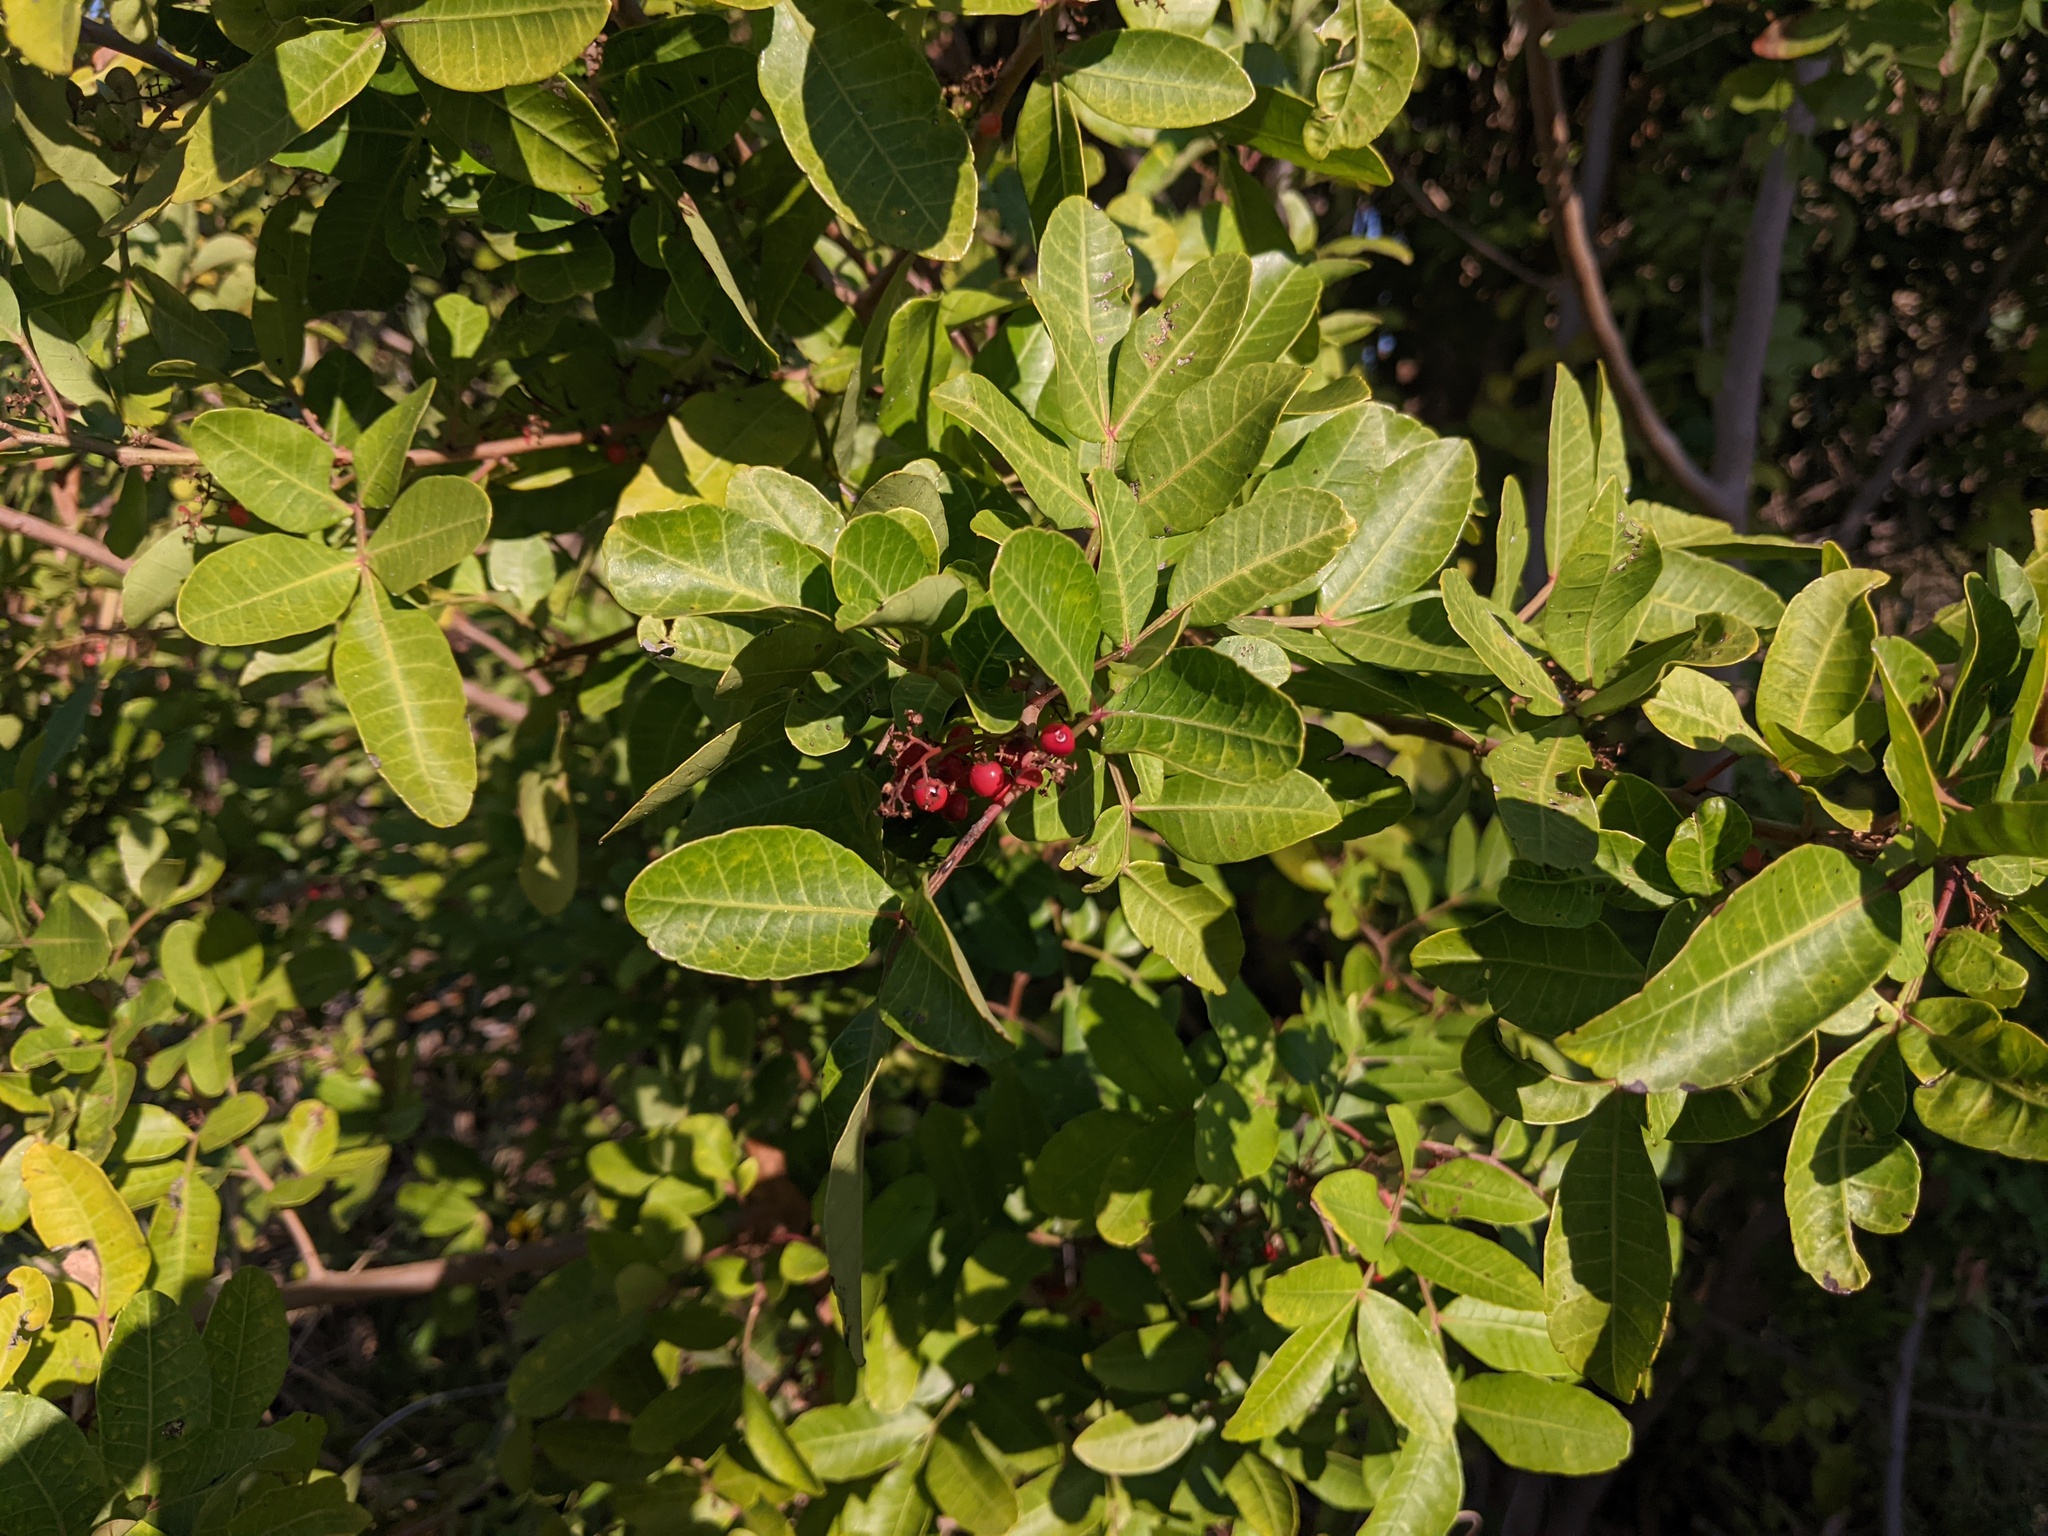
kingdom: Plantae
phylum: Tracheophyta
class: Magnoliopsida
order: Sapindales
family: Anacardiaceae
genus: Schinus
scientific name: Schinus terebinthifolia
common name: Brazilian peppertree
